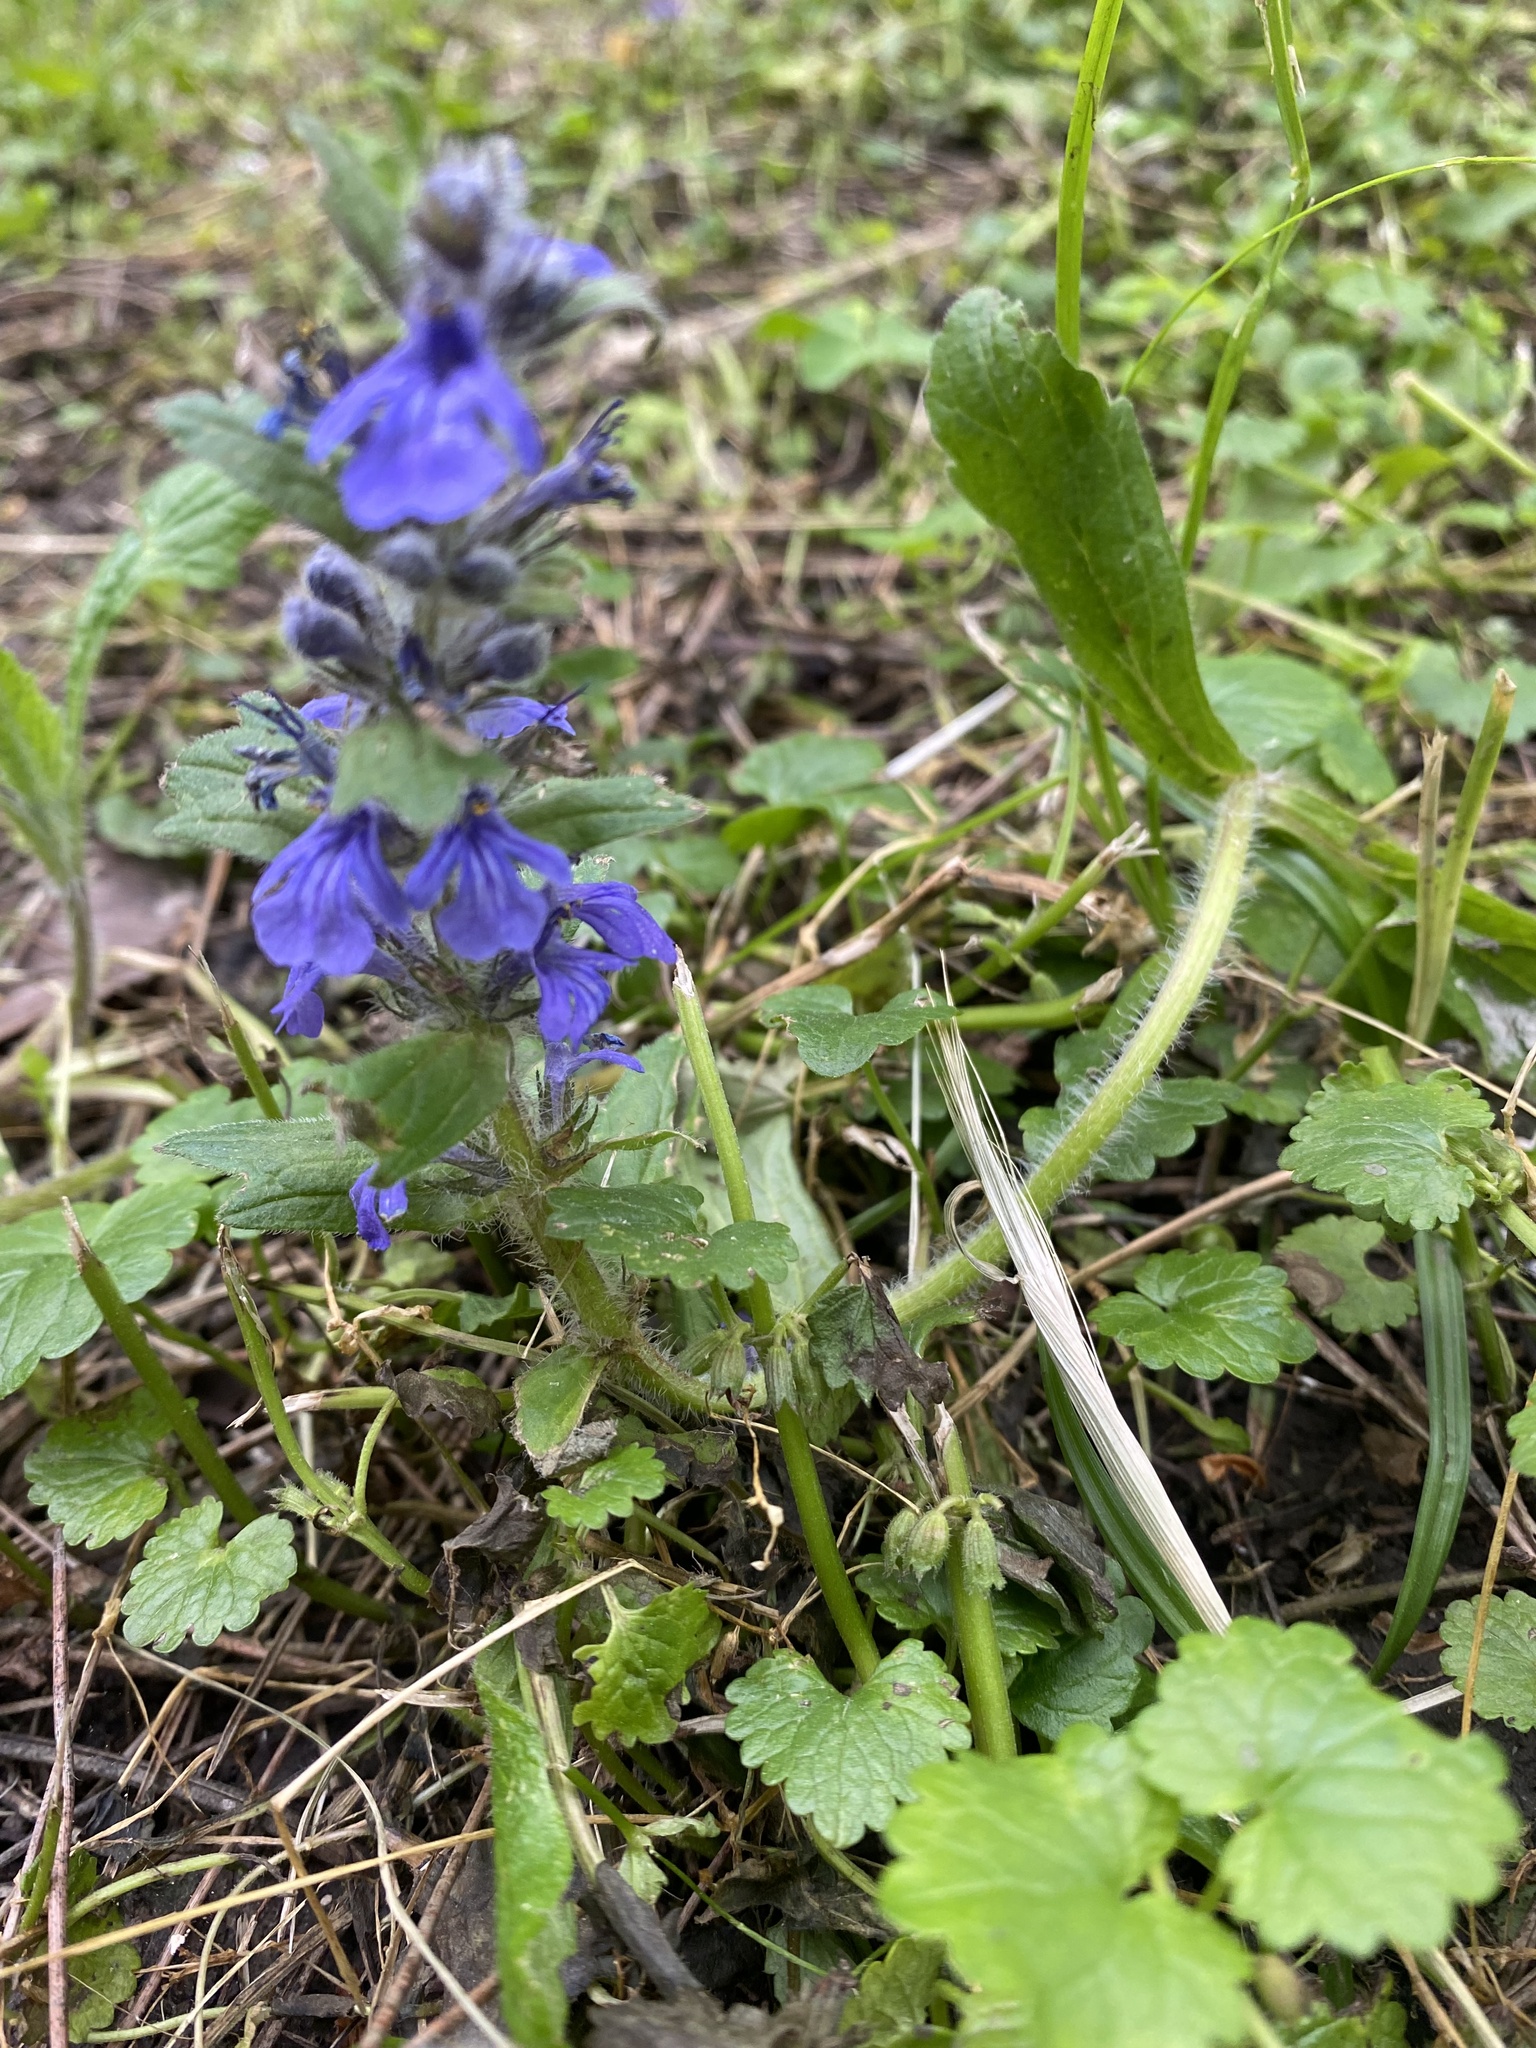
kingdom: Plantae
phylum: Tracheophyta
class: Magnoliopsida
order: Lamiales
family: Lamiaceae
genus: Ajuga
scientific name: Ajuga genevensis
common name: Blue bugle
